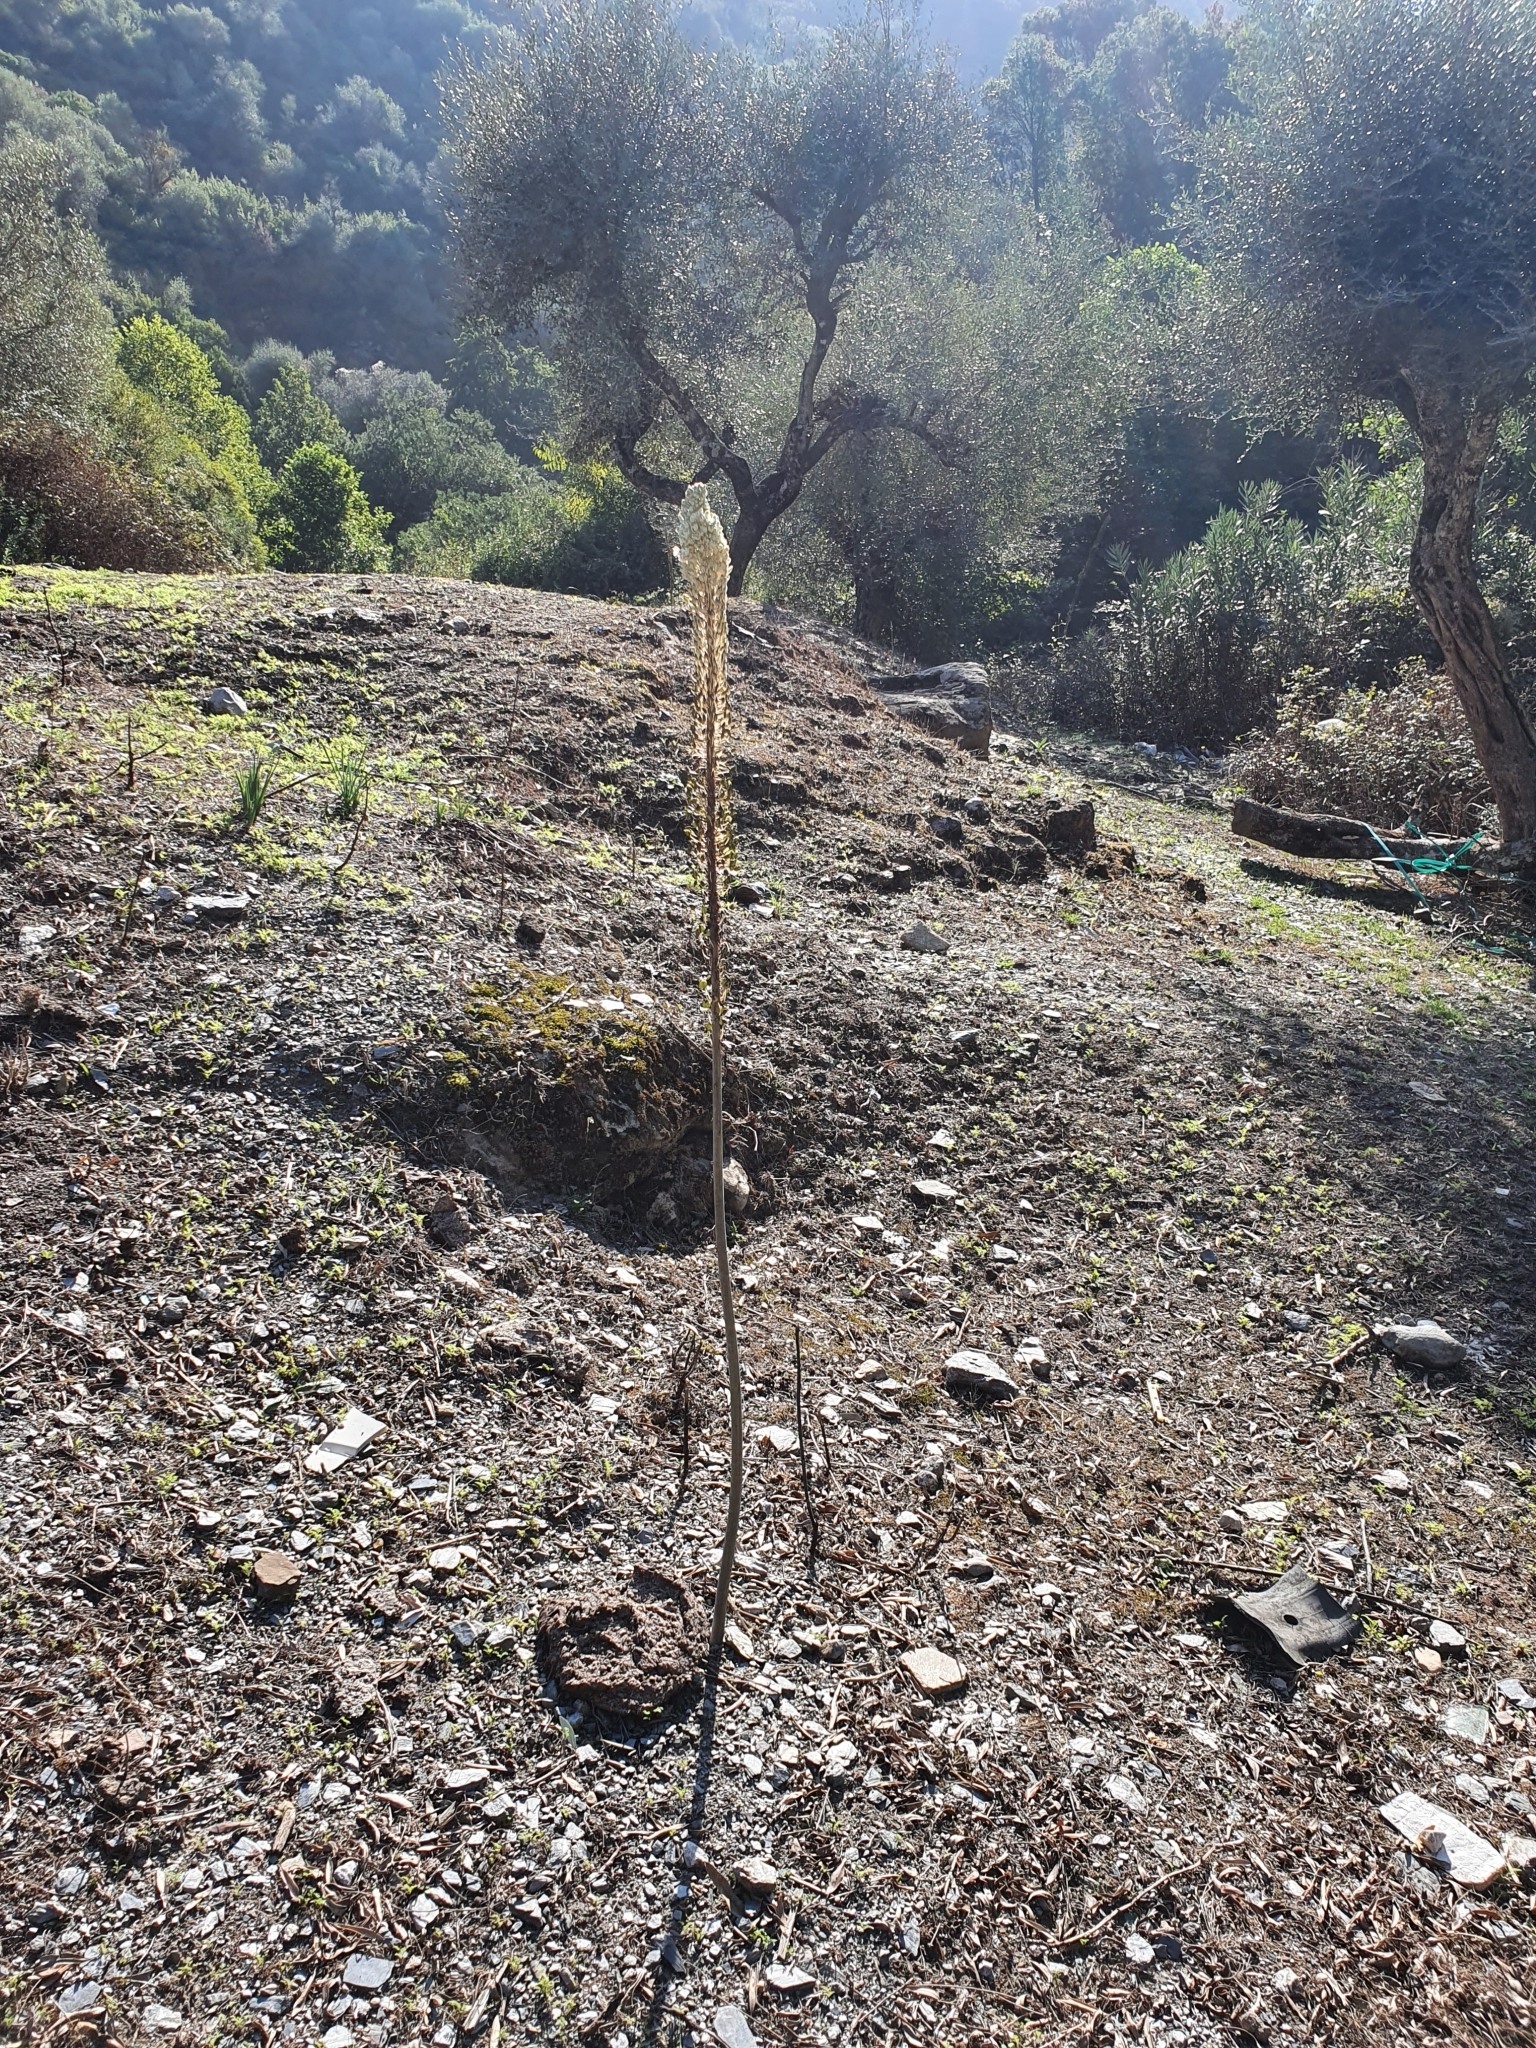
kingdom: Plantae
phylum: Tracheophyta
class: Liliopsida
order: Asparagales
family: Asparagaceae
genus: Drimia
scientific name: Drimia numidica
